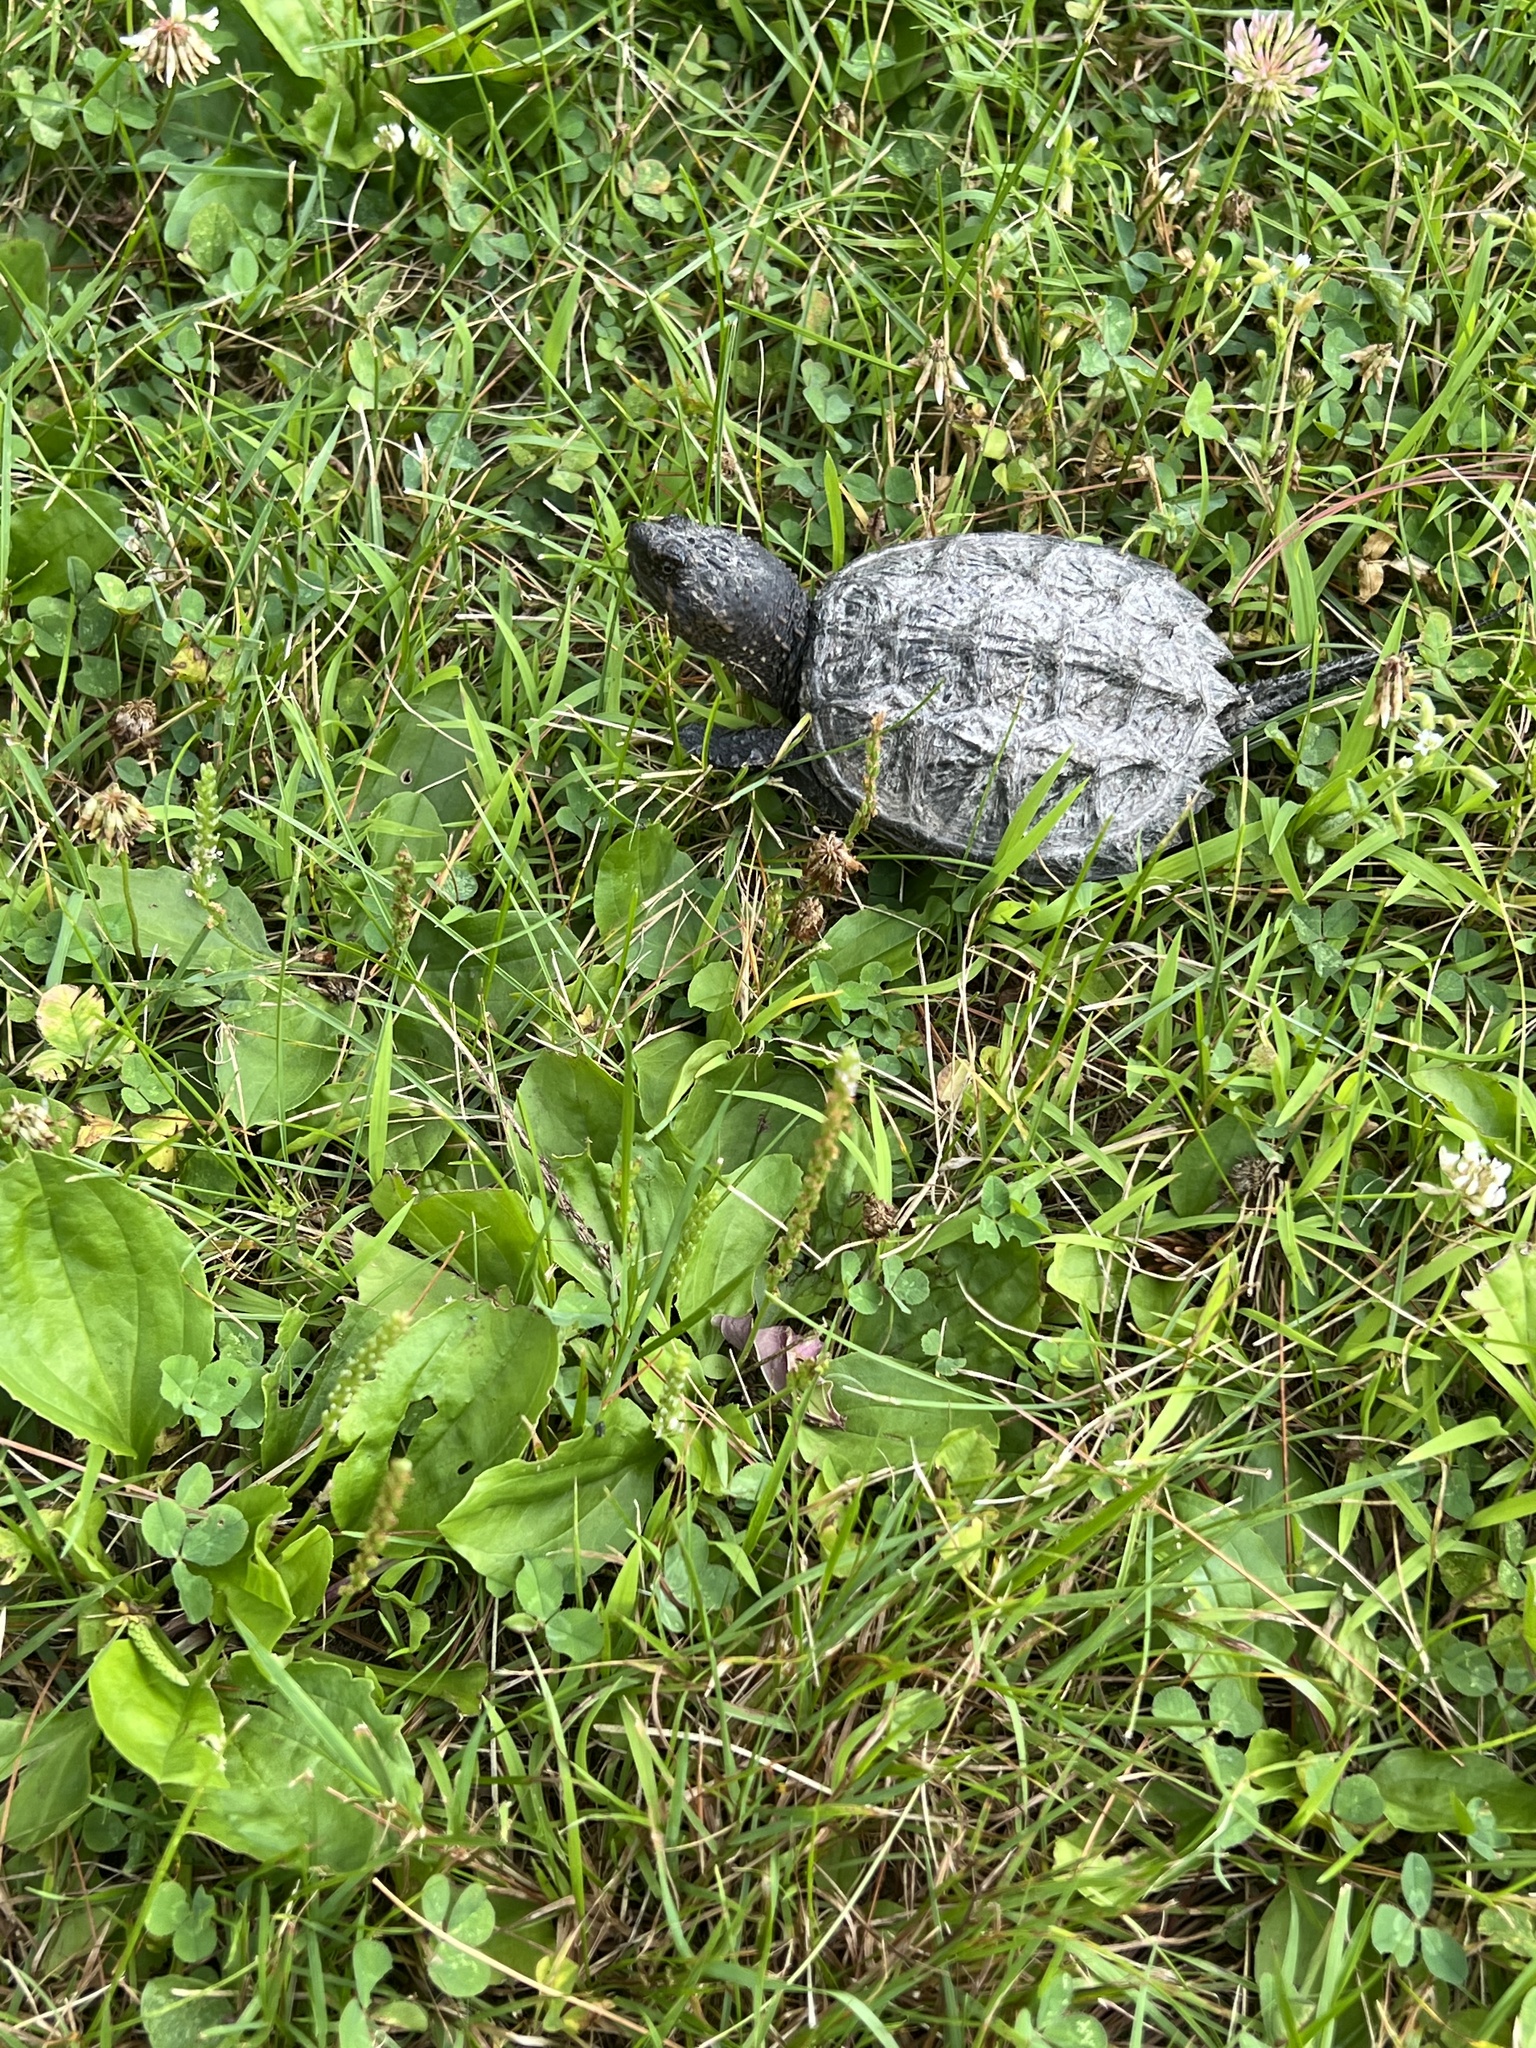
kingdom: Animalia
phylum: Chordata
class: Testudines
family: Chelydridae
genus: Chelydra
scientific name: Chelydra serpentina
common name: Common snapping turtle
